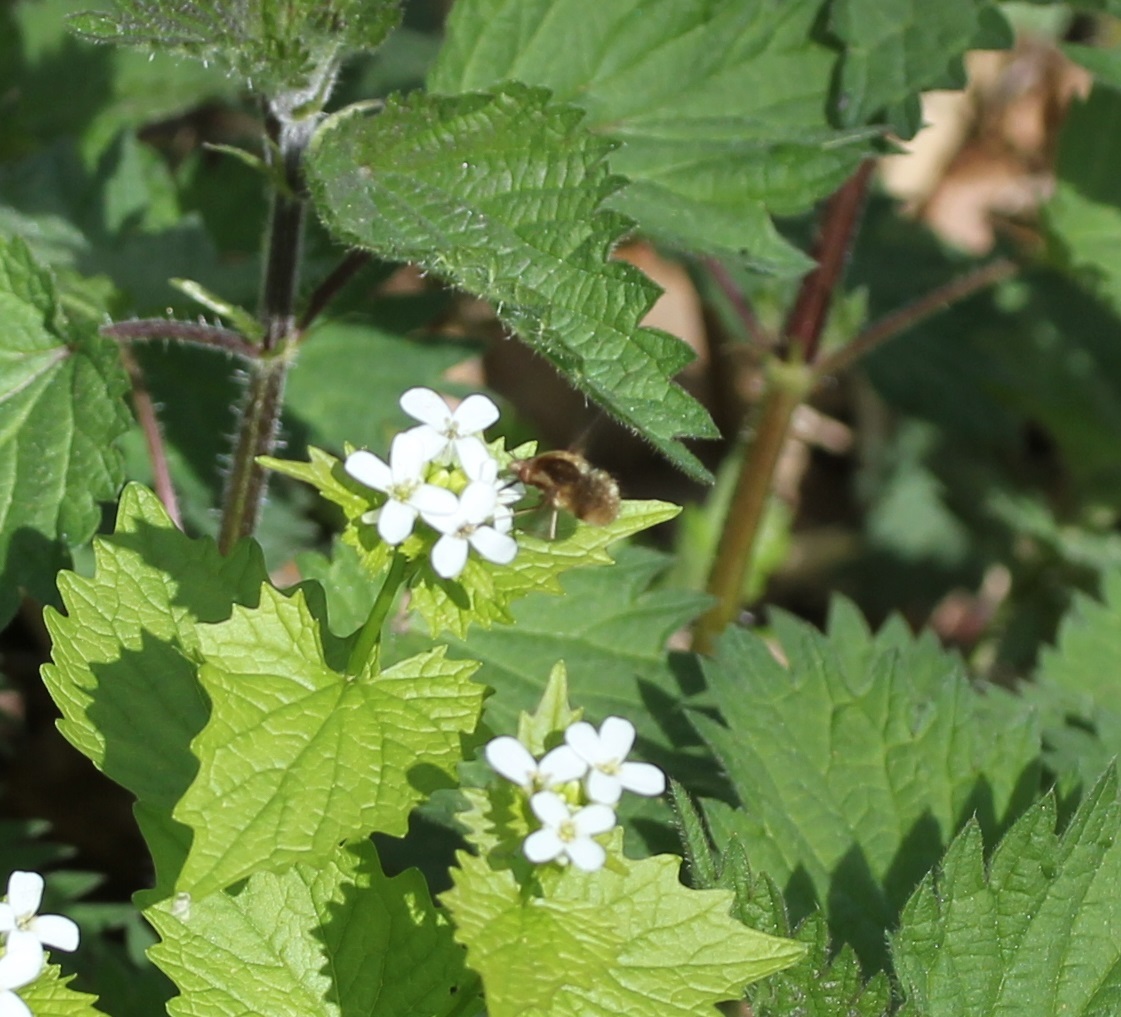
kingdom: Animalia
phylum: Arthropoda
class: Insecta
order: Diptera
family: Bombyliidae
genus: Bombylius
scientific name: Bombylius major
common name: Bee fly
